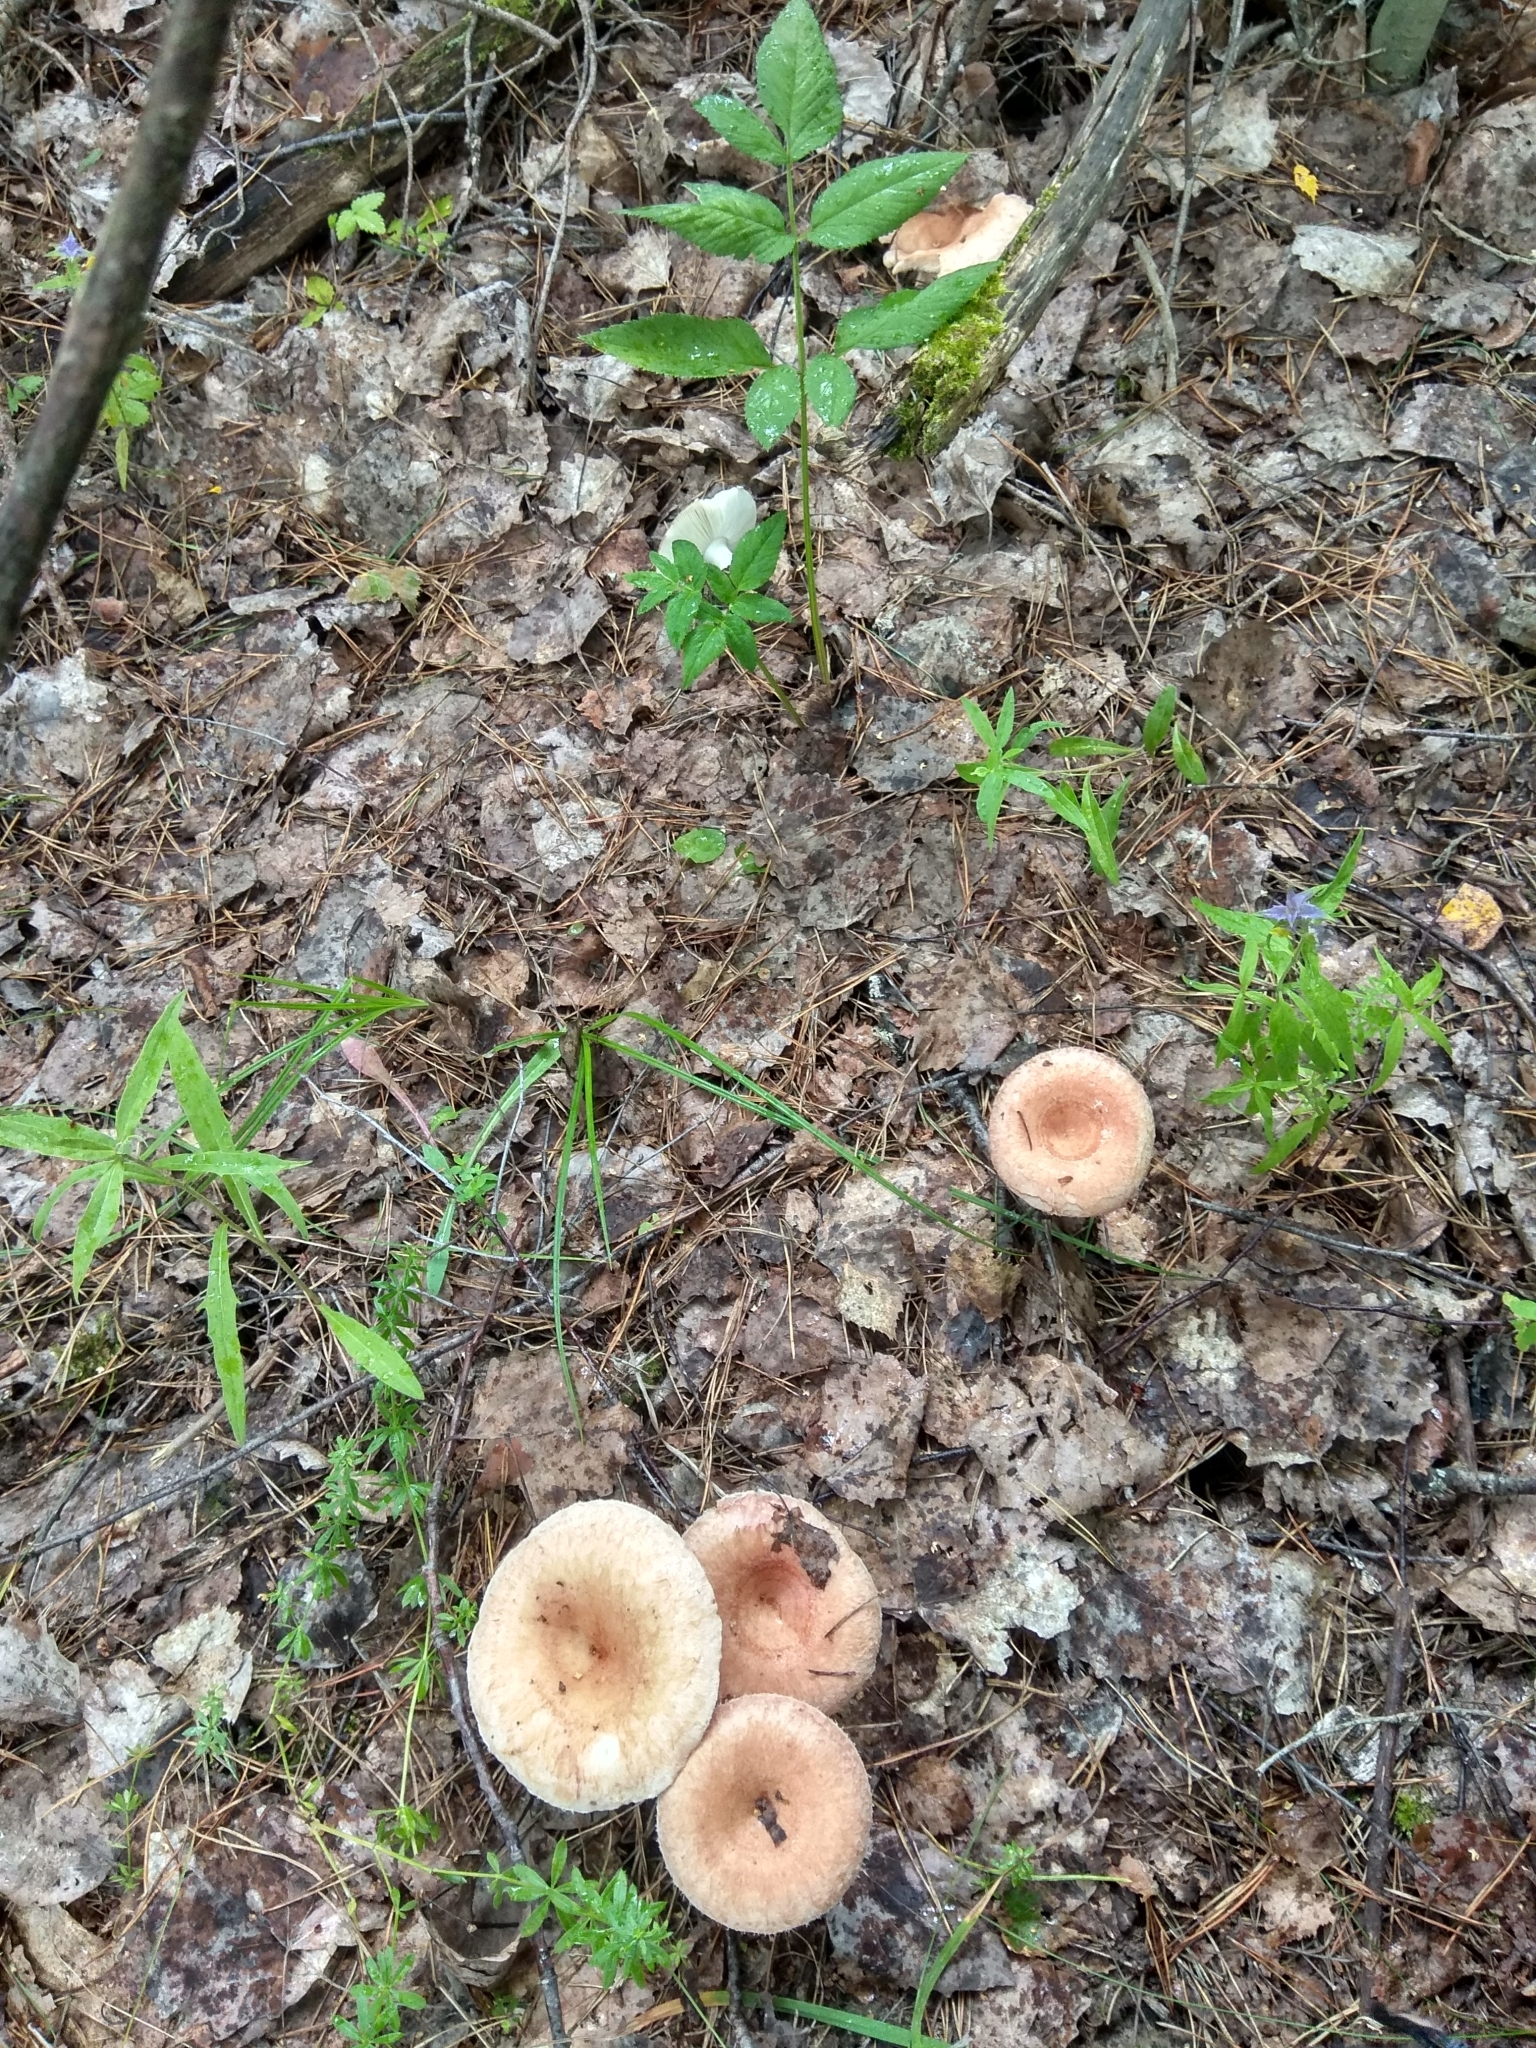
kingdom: Fungi
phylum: Basidiomycota
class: Agaricomycetes
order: Russulales
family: Russulaceae
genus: Lactarius
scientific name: Lactarius torminosus
